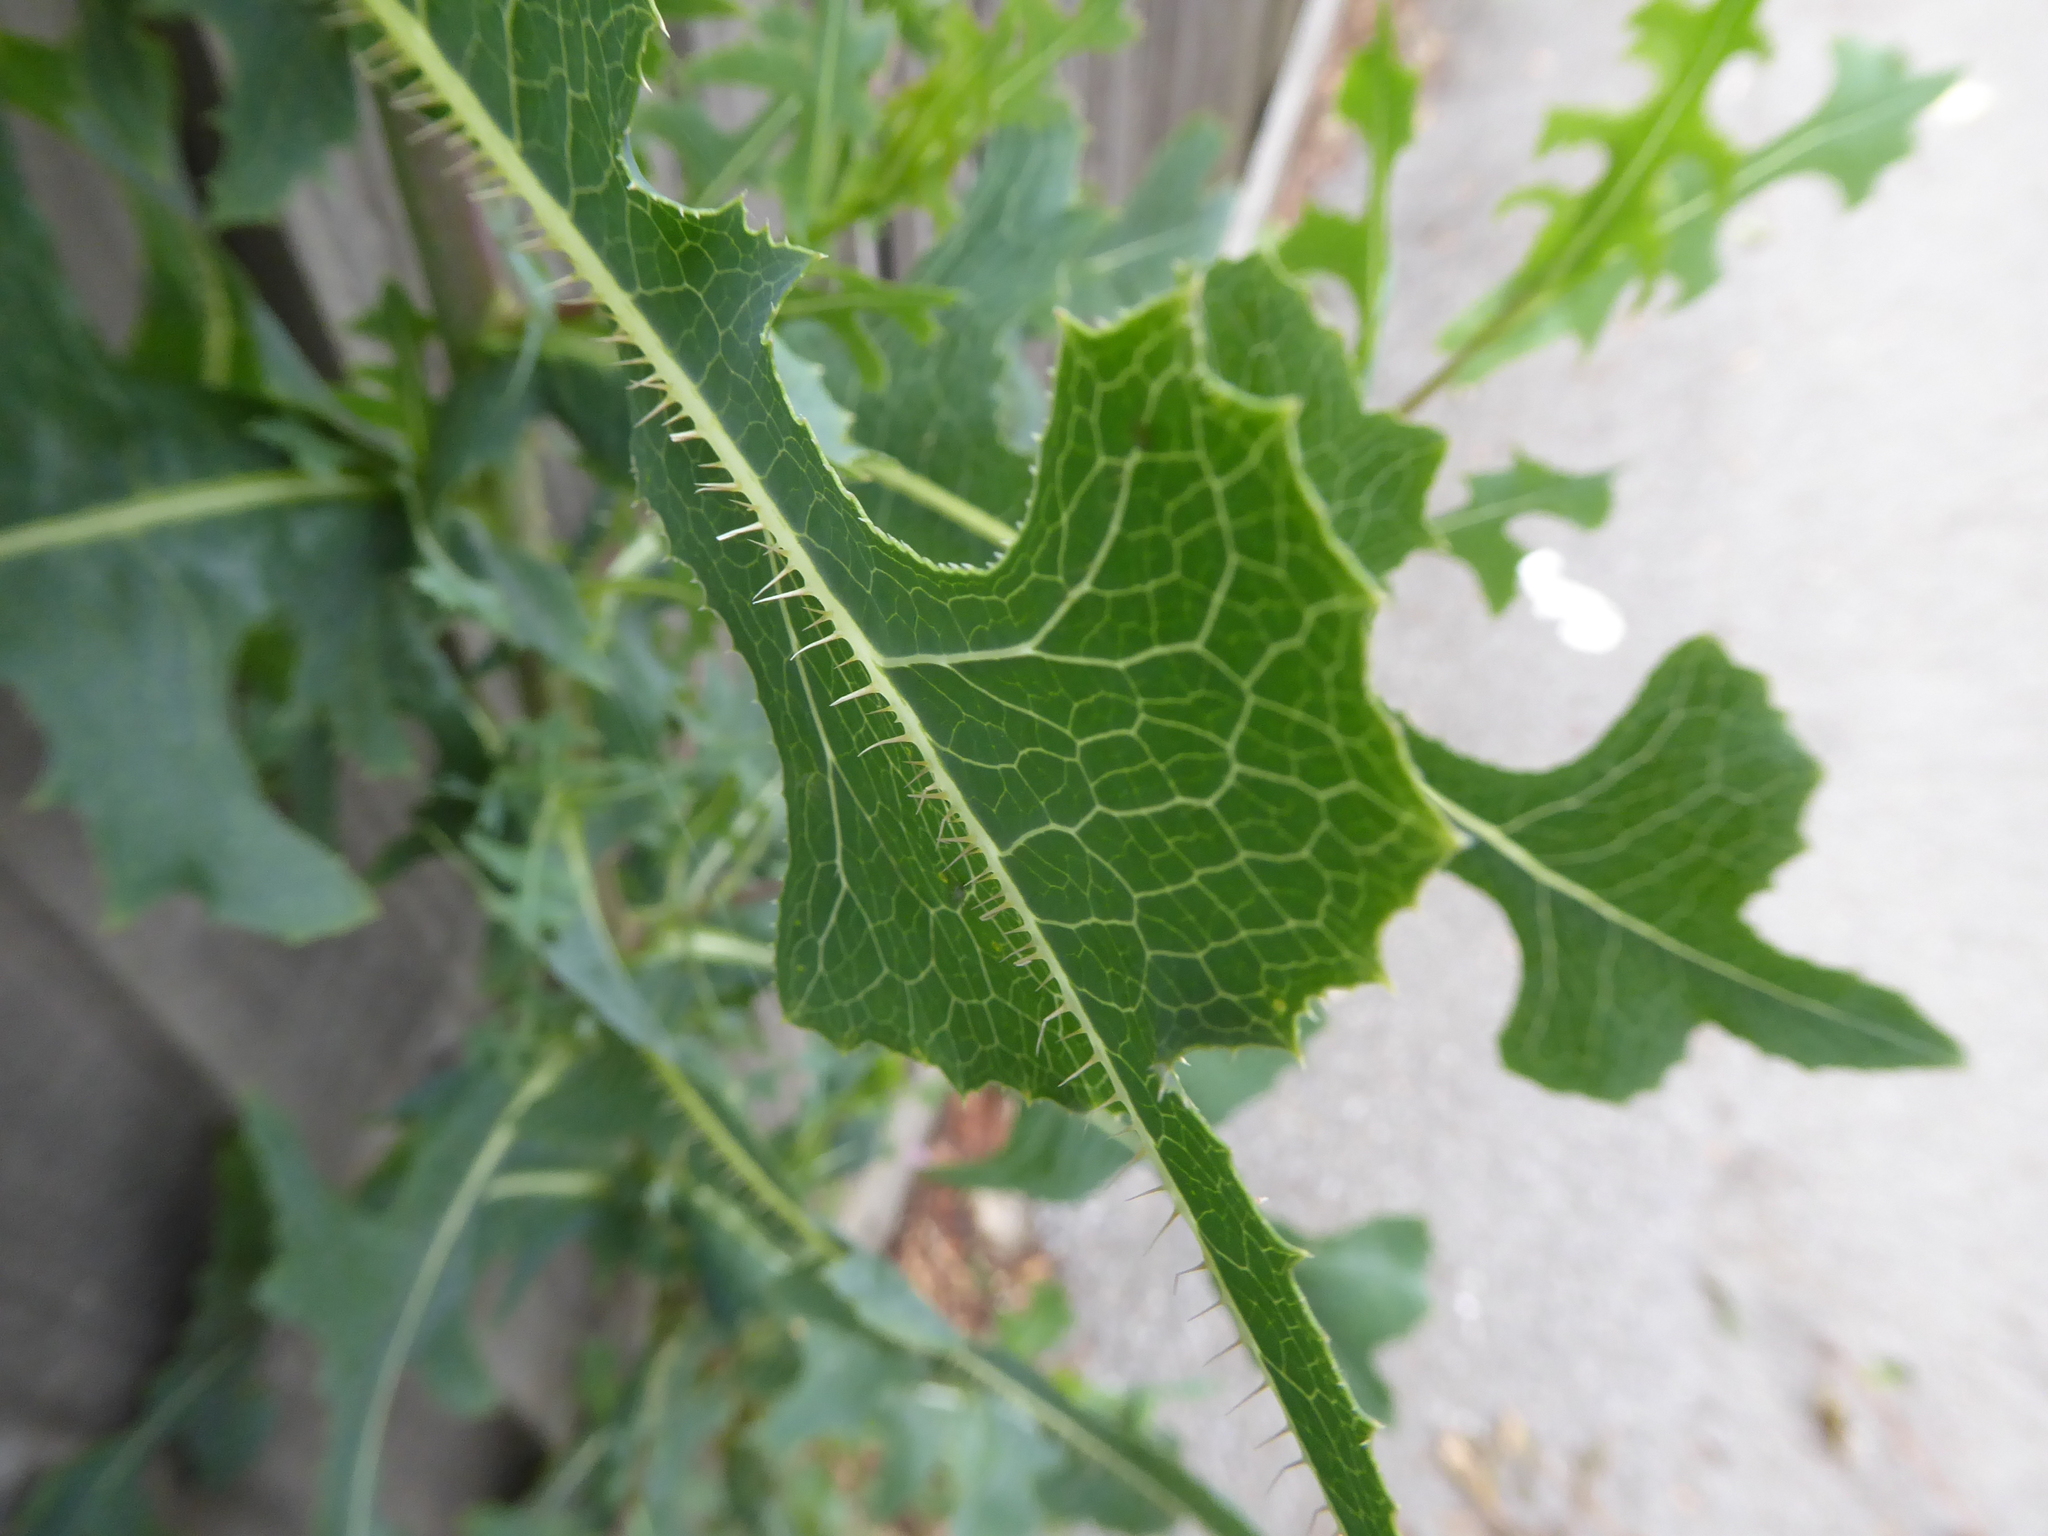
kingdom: Plantae
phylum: Tracheophyta
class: Magnoliopsida
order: Asterales
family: Asteraceae
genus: Lactuca
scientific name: Lactuca serriola
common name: Prickly lettuce
